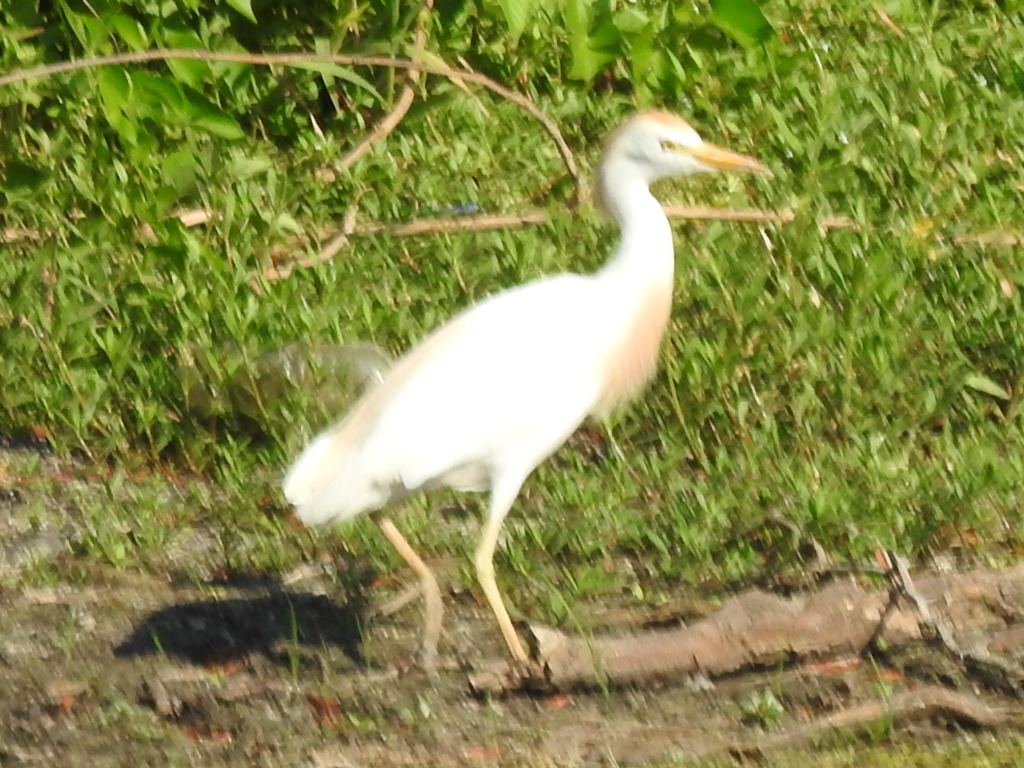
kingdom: Animalia
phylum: Chordata
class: Aves
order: Pelecaniformes
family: Ardeidae
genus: Bubulcus
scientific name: Bubulcus ibis
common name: Cattle egret
